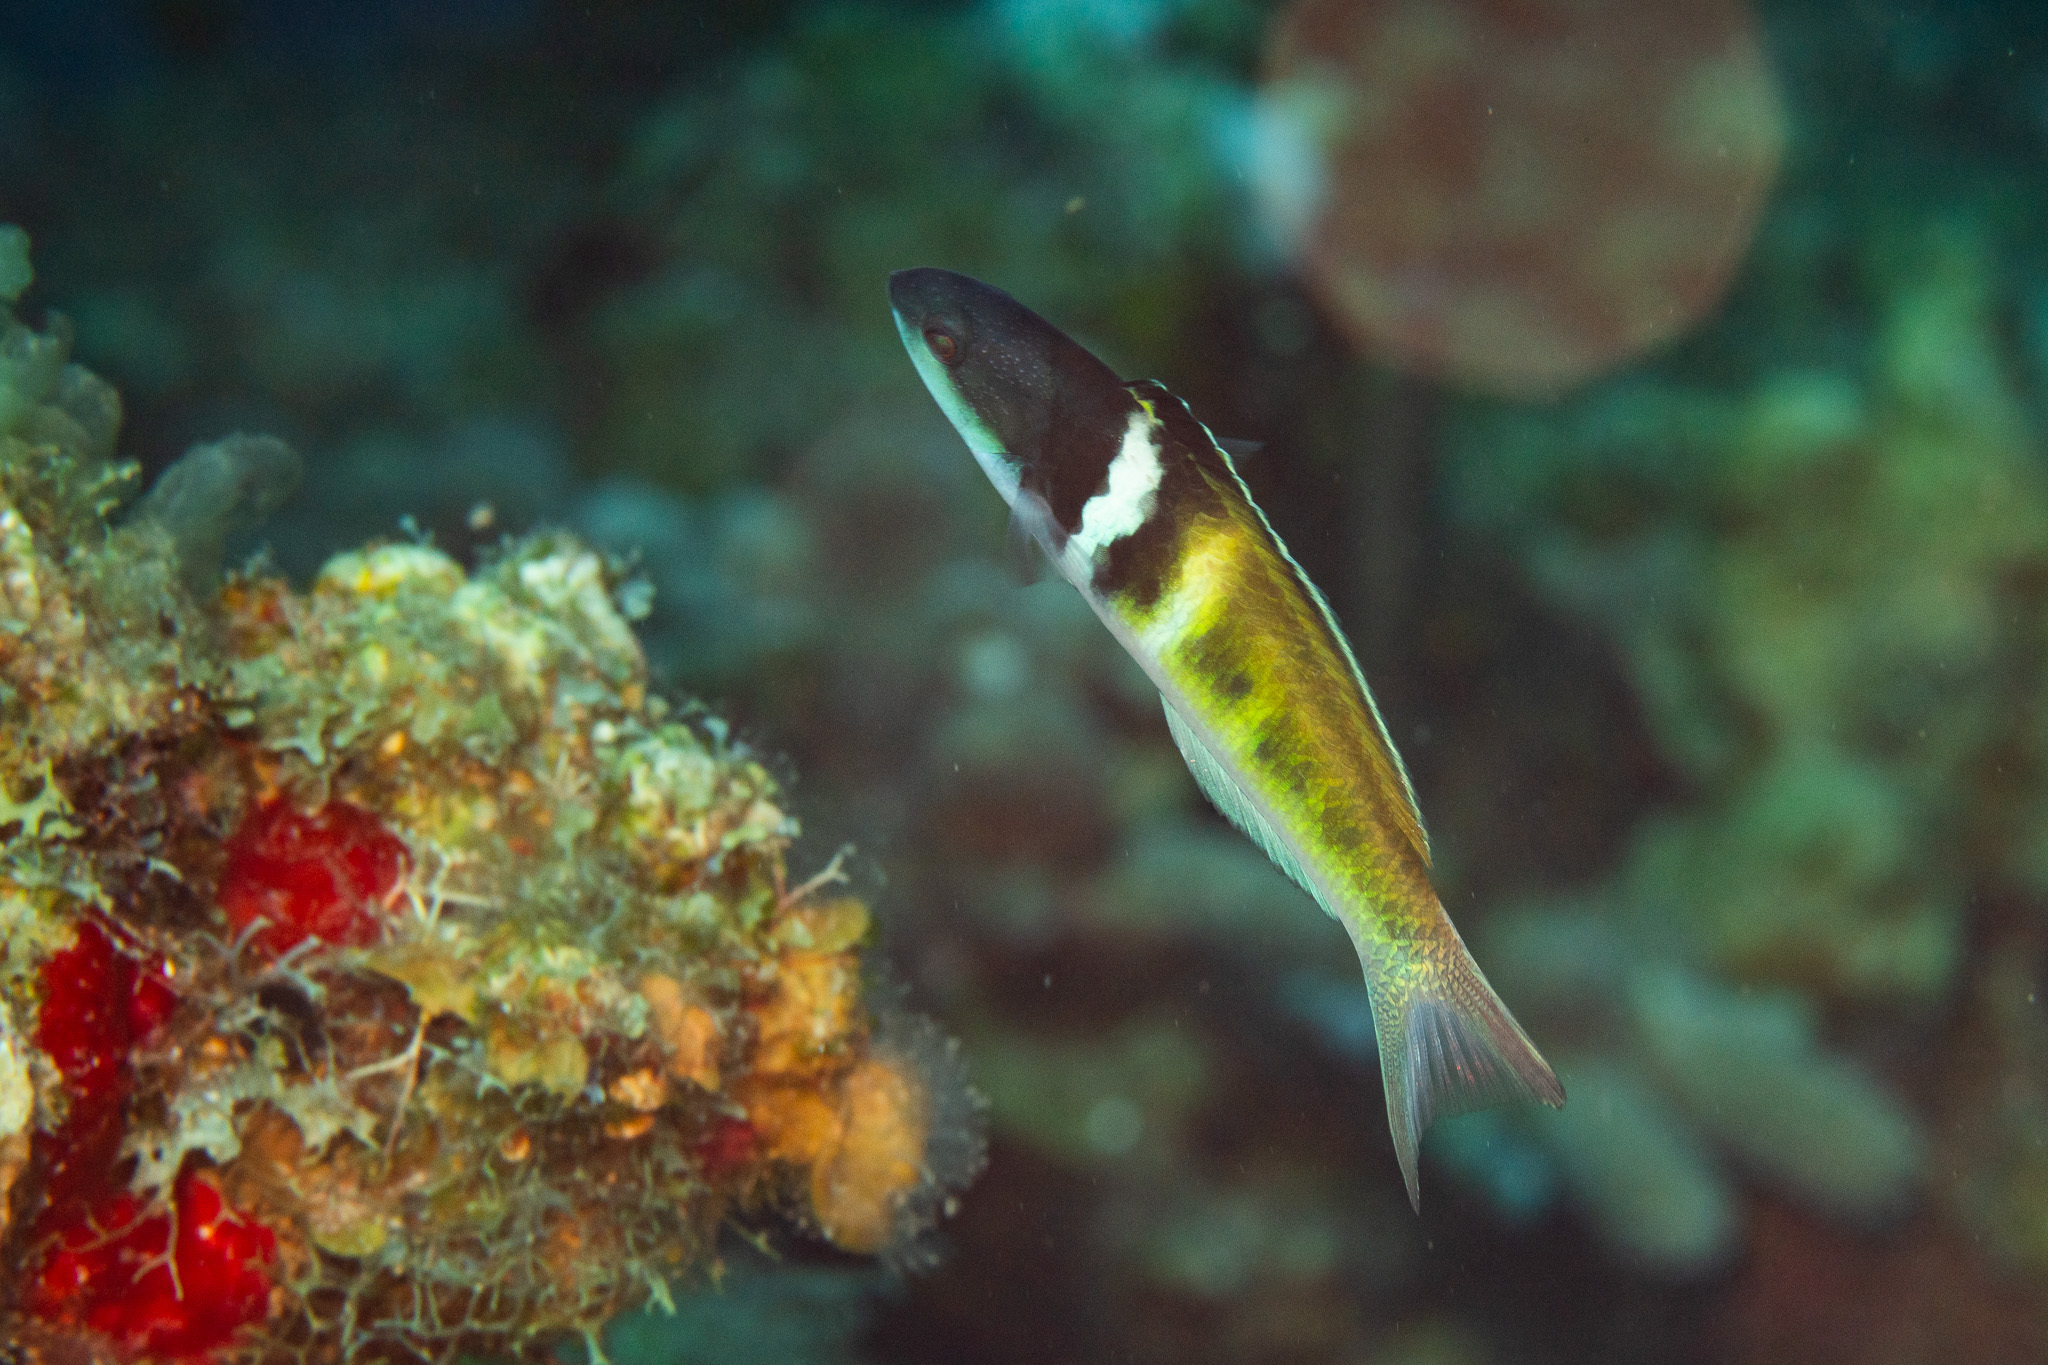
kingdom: Animalia
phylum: Chordata
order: Perciformes
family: Labridae
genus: Thalassoma
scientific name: Thalassoma bifasciatum
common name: Bluehead wrasse
